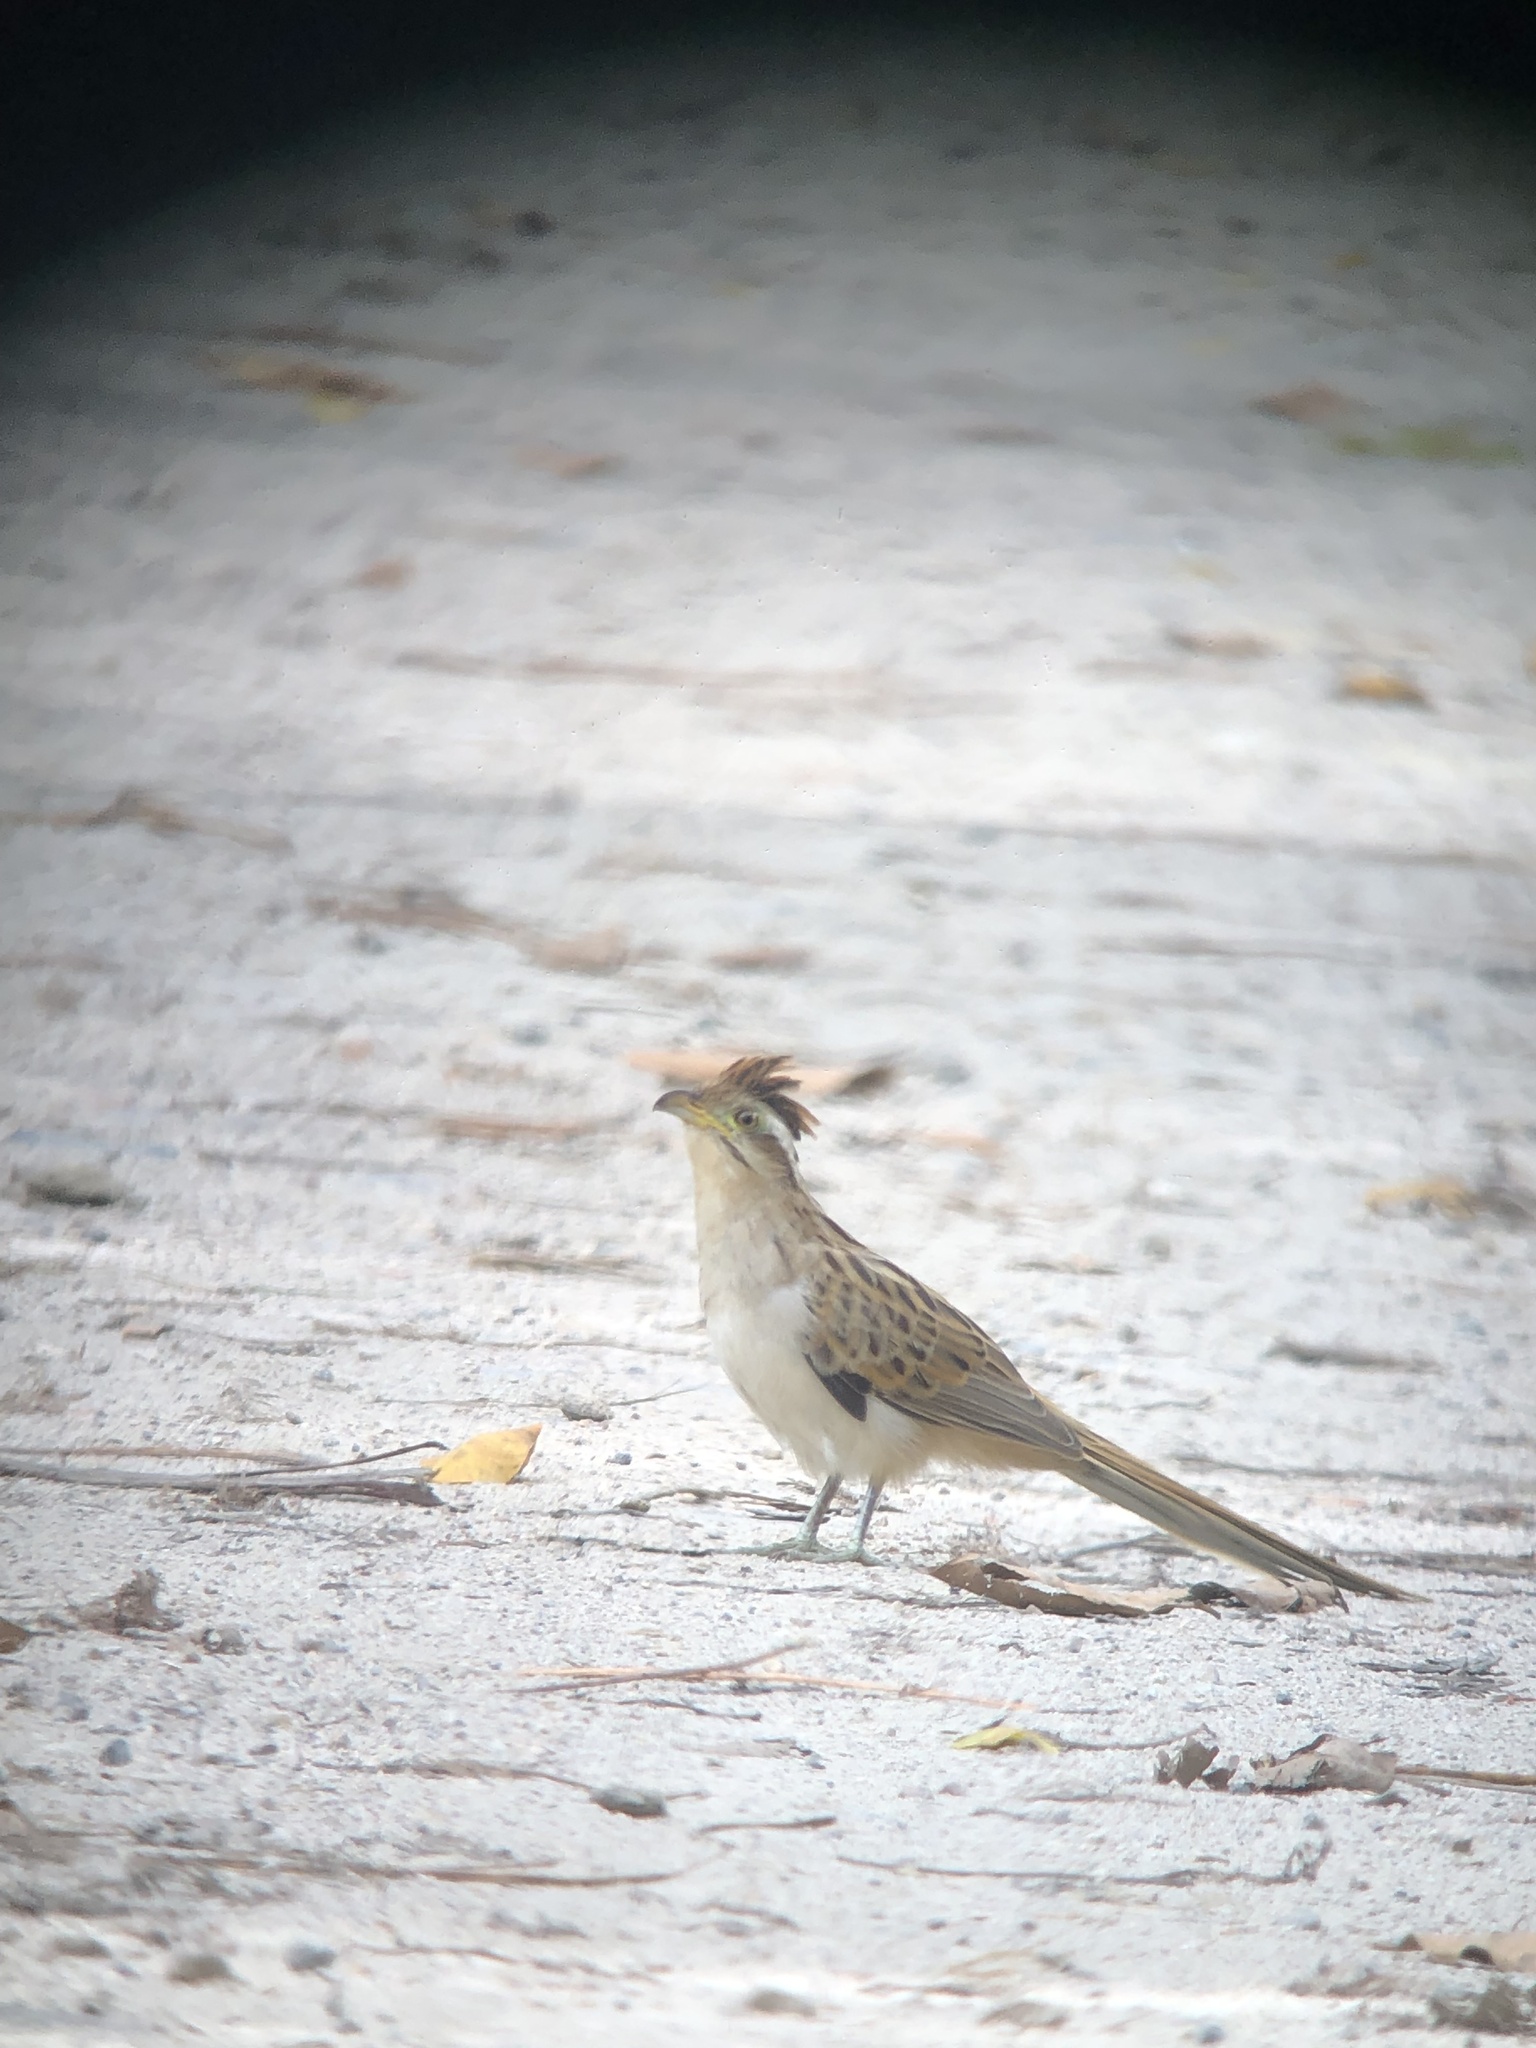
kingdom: Animalia
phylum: Chordata
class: Aves
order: Cuculiformes
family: Cuculidae
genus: Tapera
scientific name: Tapera naevia
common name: Striped cuckoo
